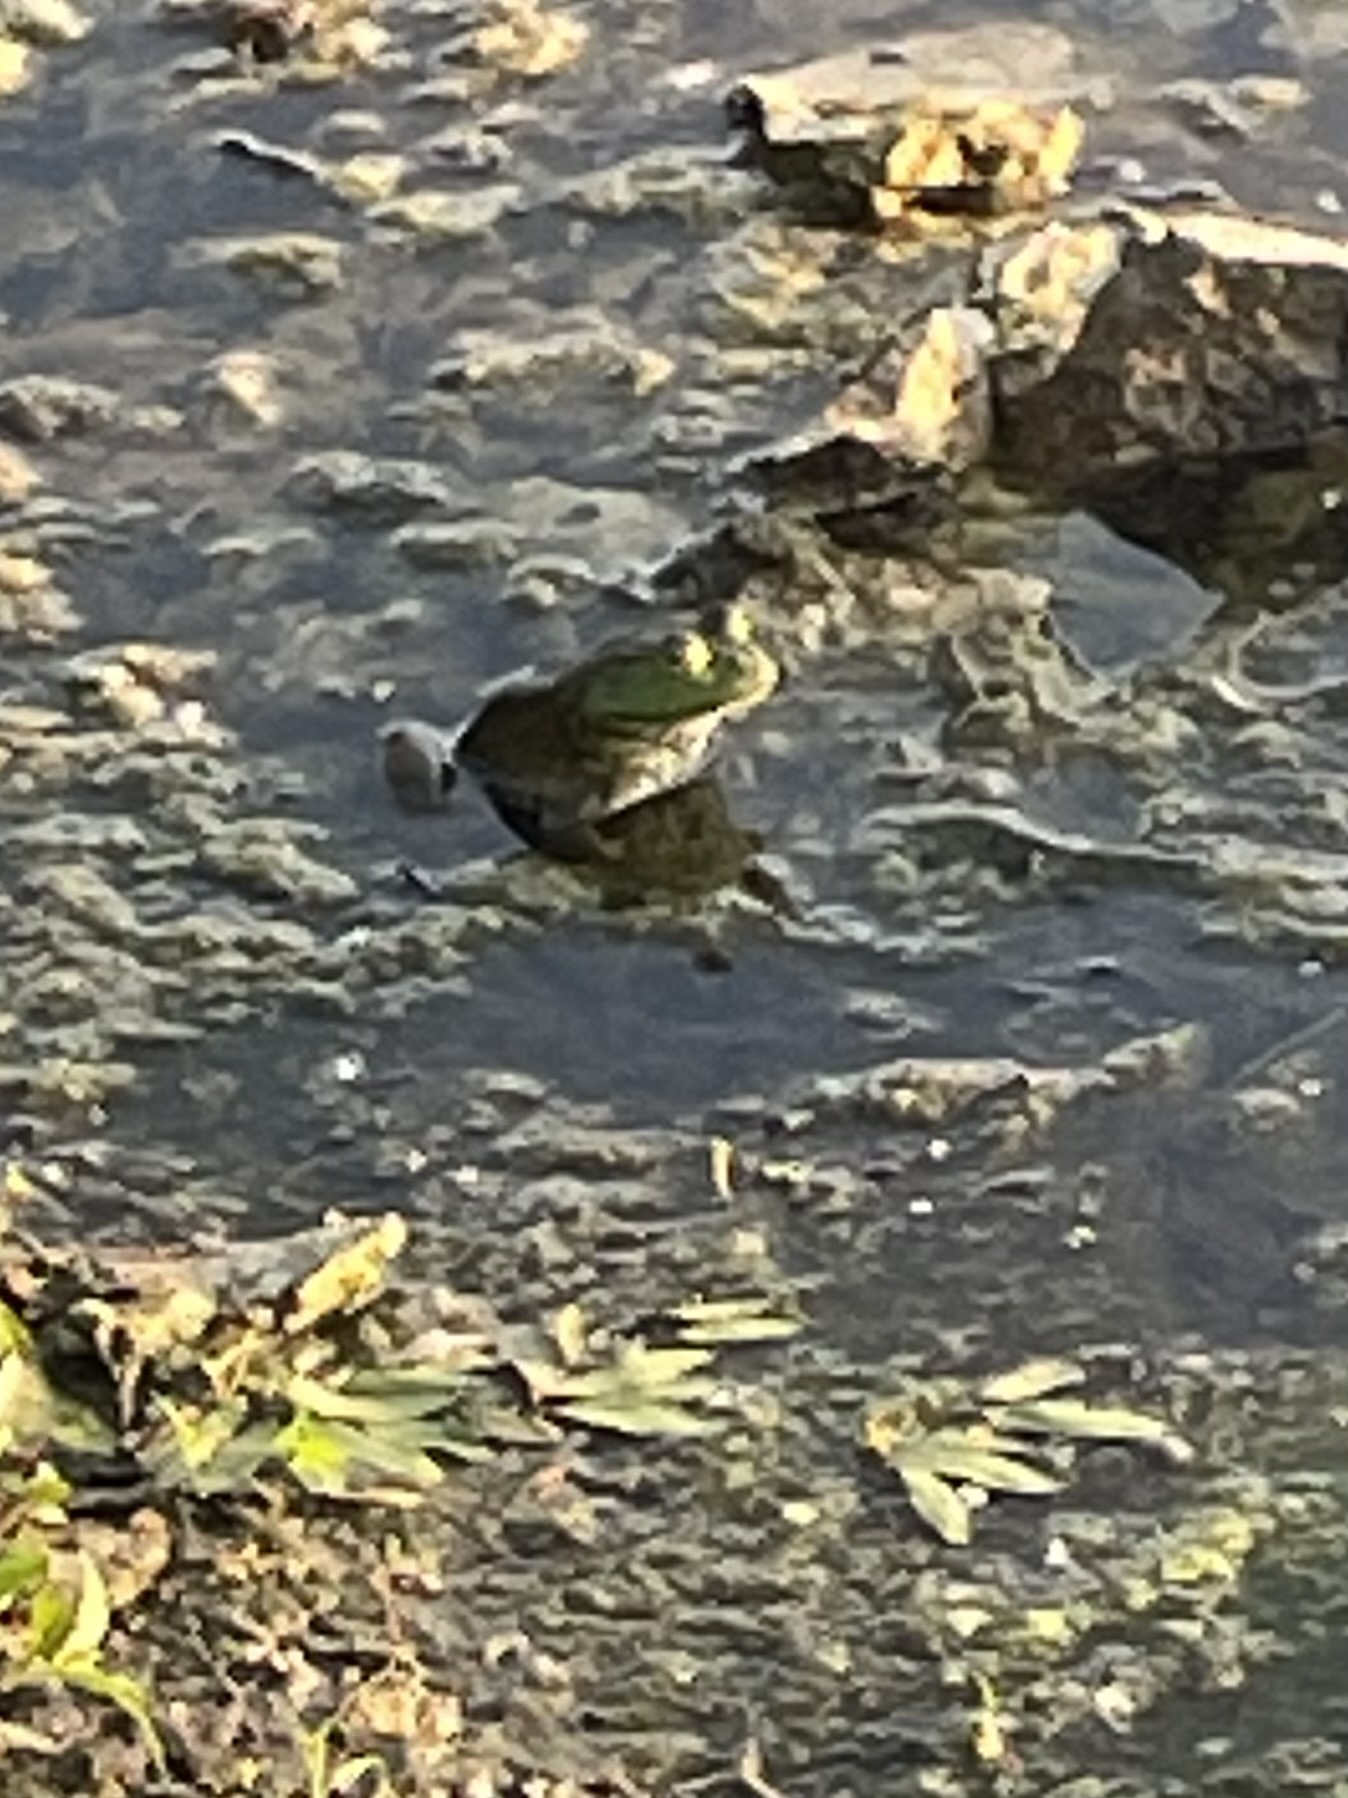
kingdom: Animalia
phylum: Chordata
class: Amphibia
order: Anura
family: Ranidae
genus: Lithobates
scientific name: Lithobates catesbeianus
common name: American bullfrog
